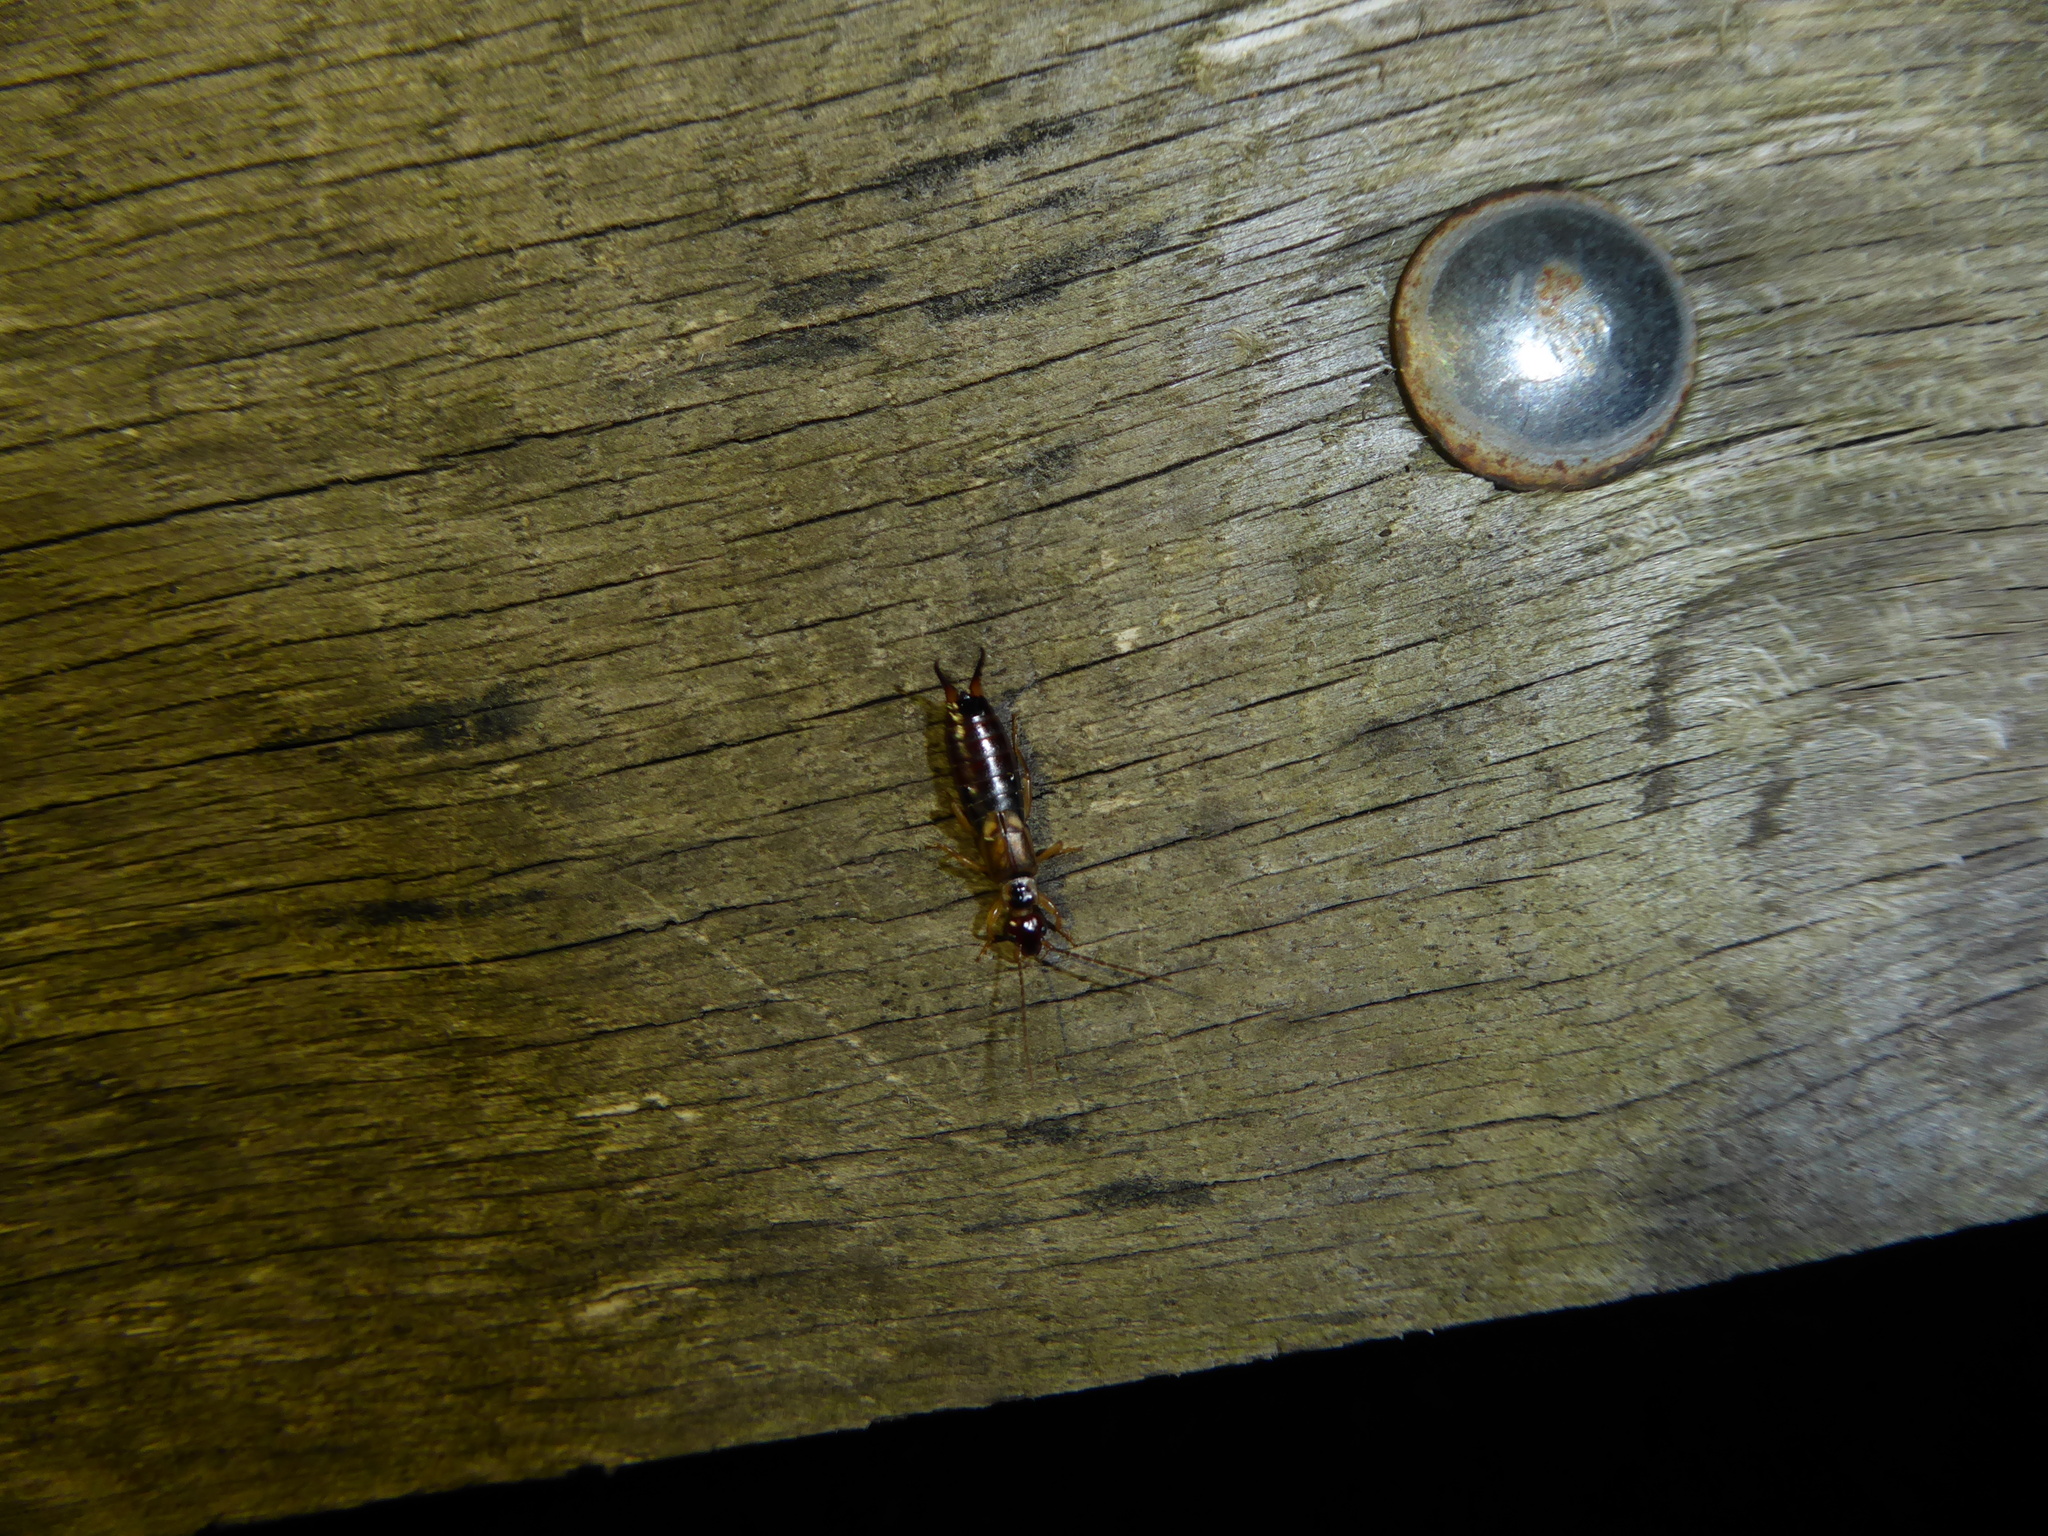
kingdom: Animalia
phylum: Arthropoda
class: Insecta
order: Dermaptera
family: Forficulidae
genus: Forficula
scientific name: Forficula
